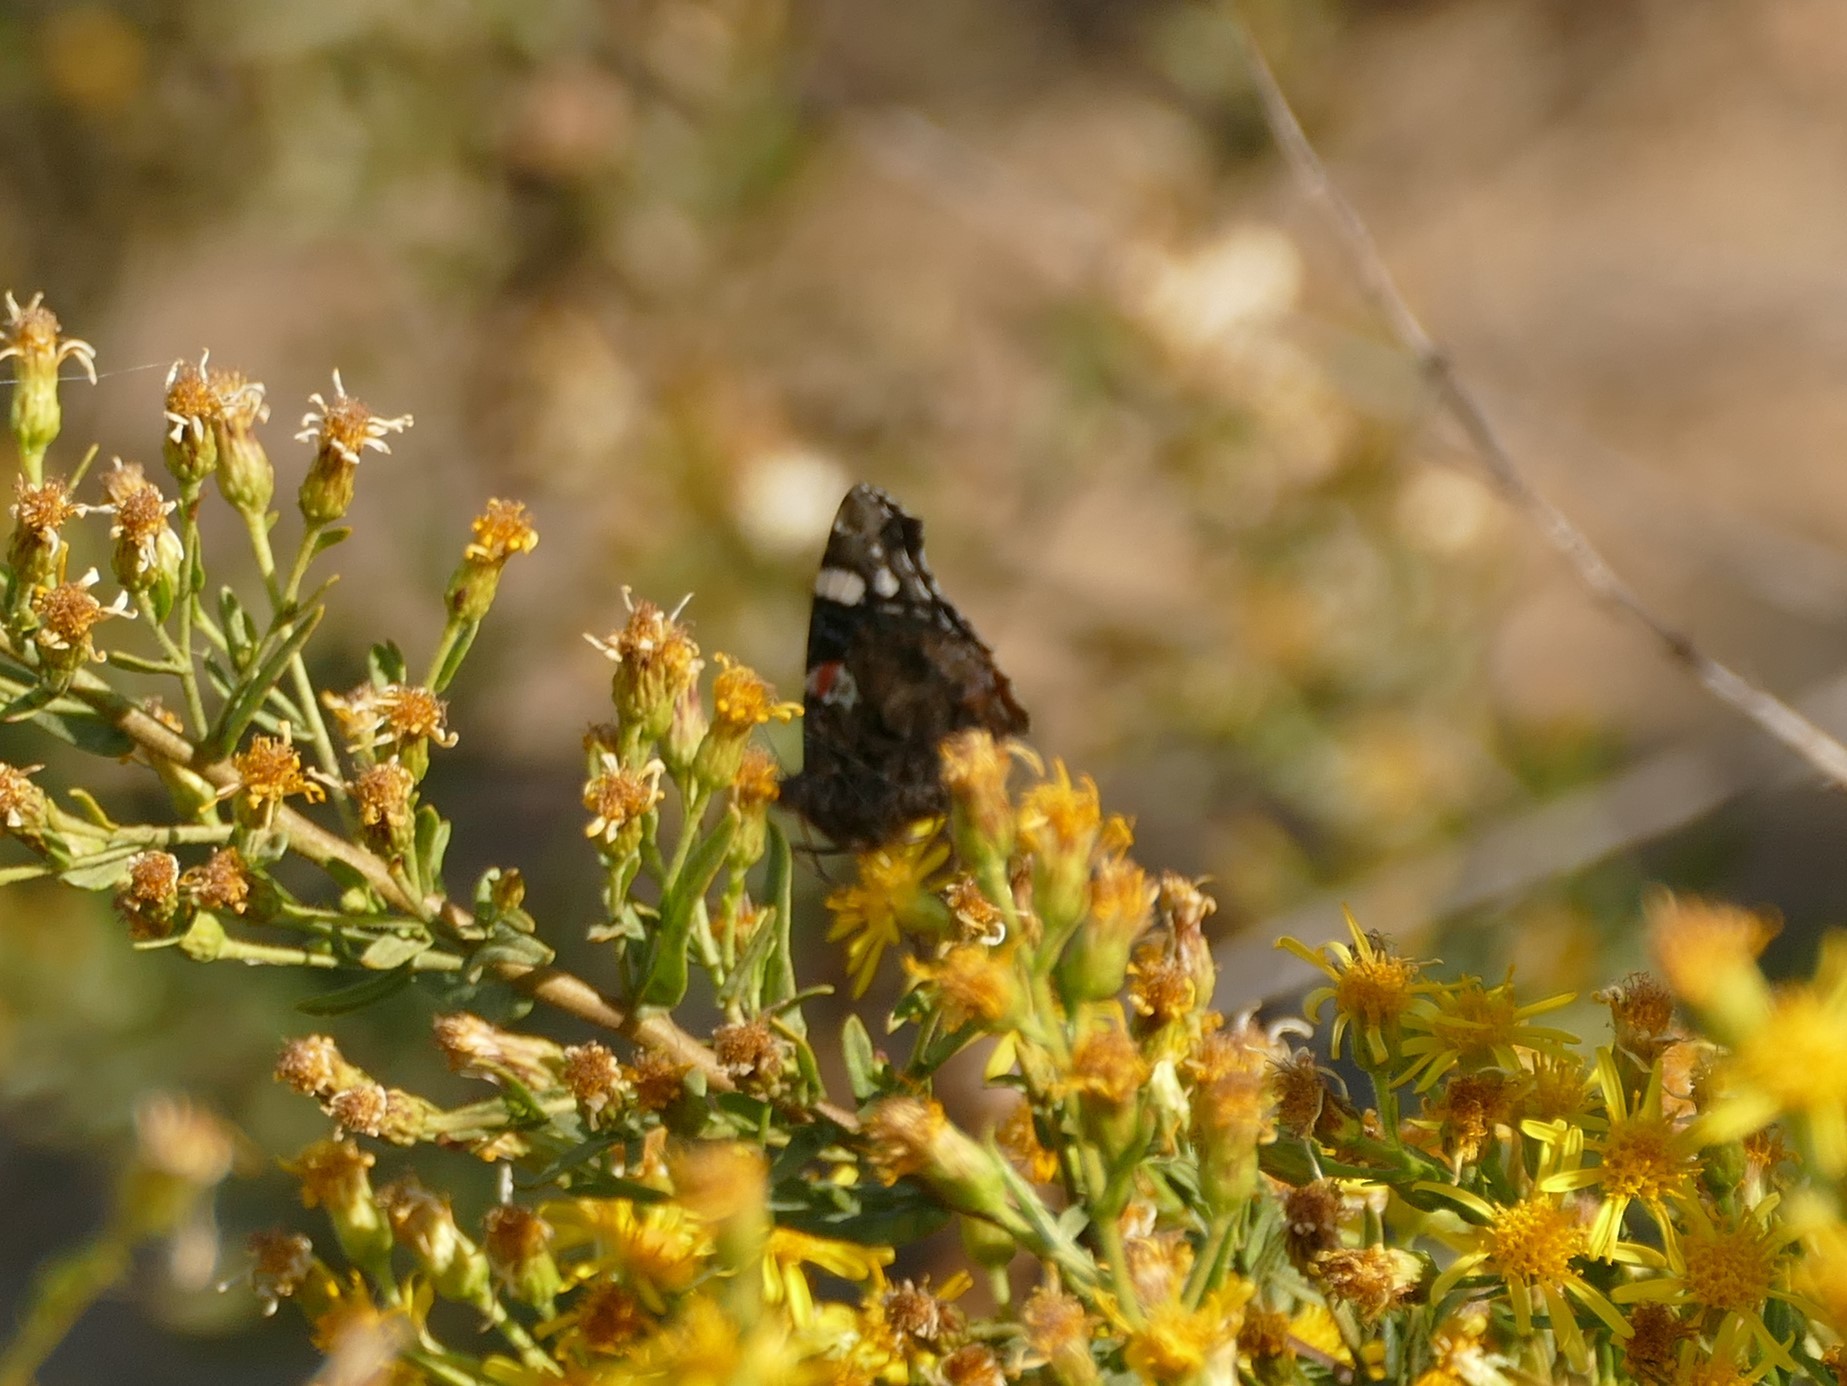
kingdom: Animalia
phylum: Arthropoda
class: Insecta
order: Lepidoptera
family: Nymphalidae
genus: Vanessa
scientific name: Vanessa atalanta
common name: Red admiral
